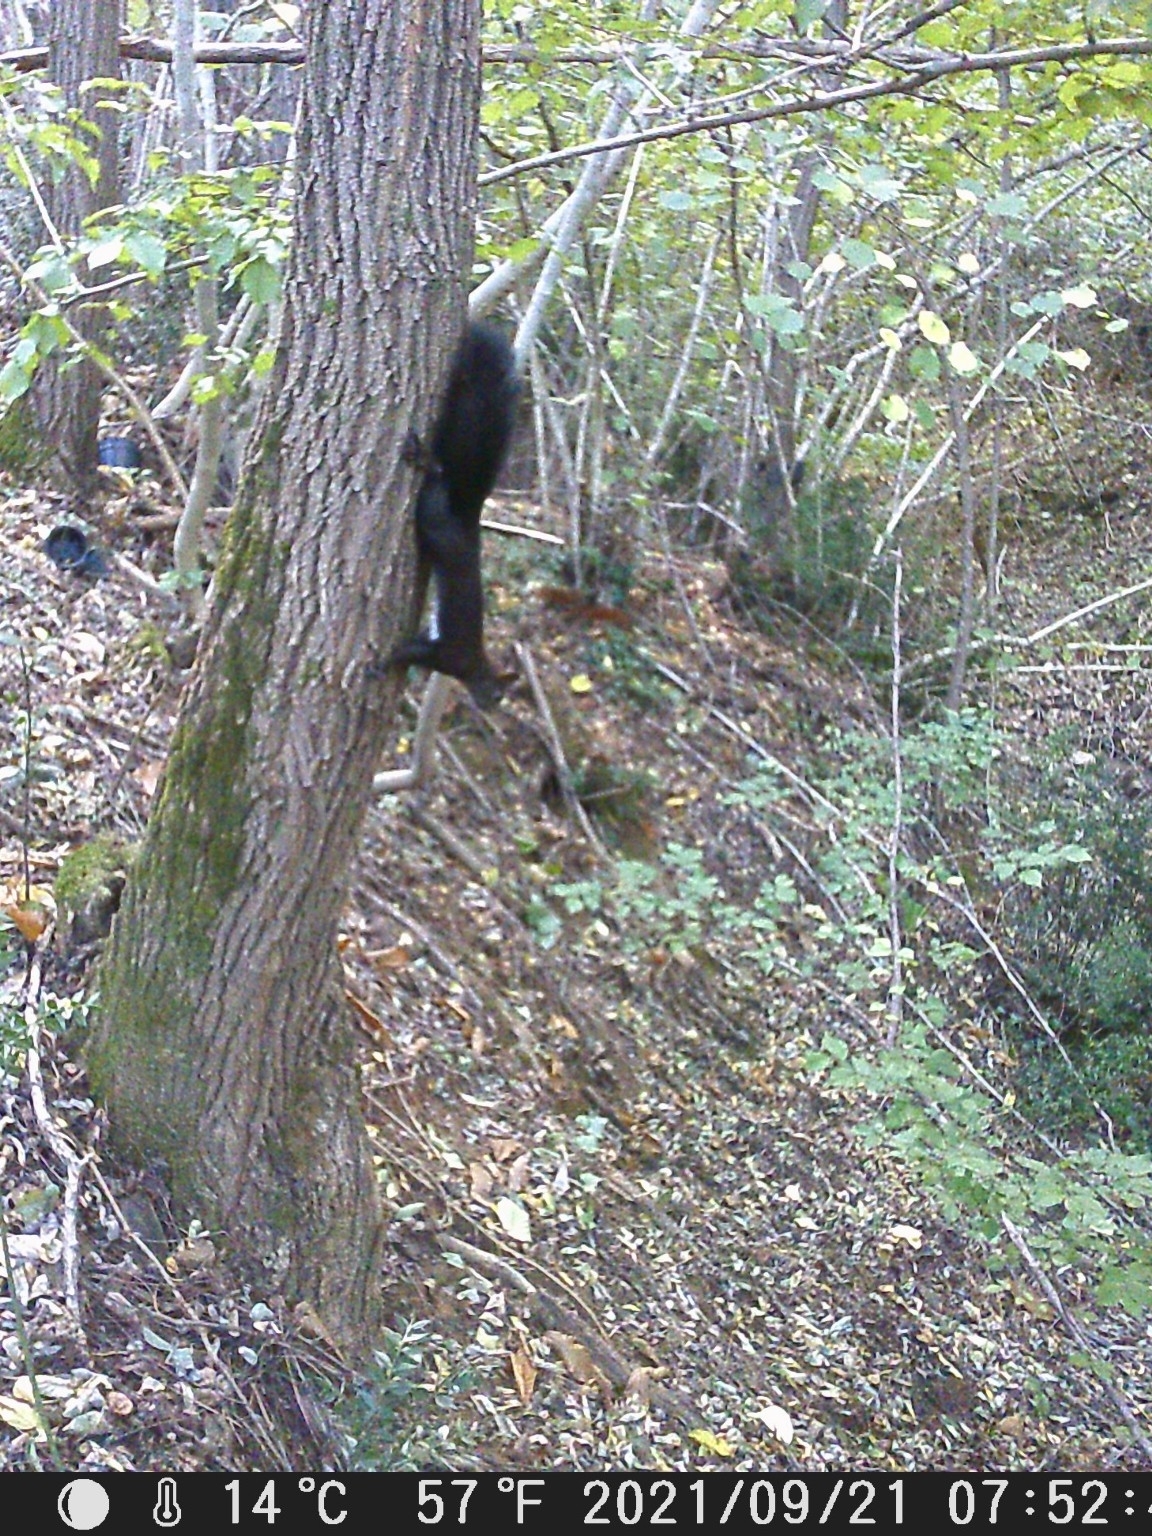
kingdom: Animalia
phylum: Chordata
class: Mammalia
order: Rodentia
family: Sciuridae
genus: Sciurus
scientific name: Sciurus vulgaris
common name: Eurasian red squirrel
